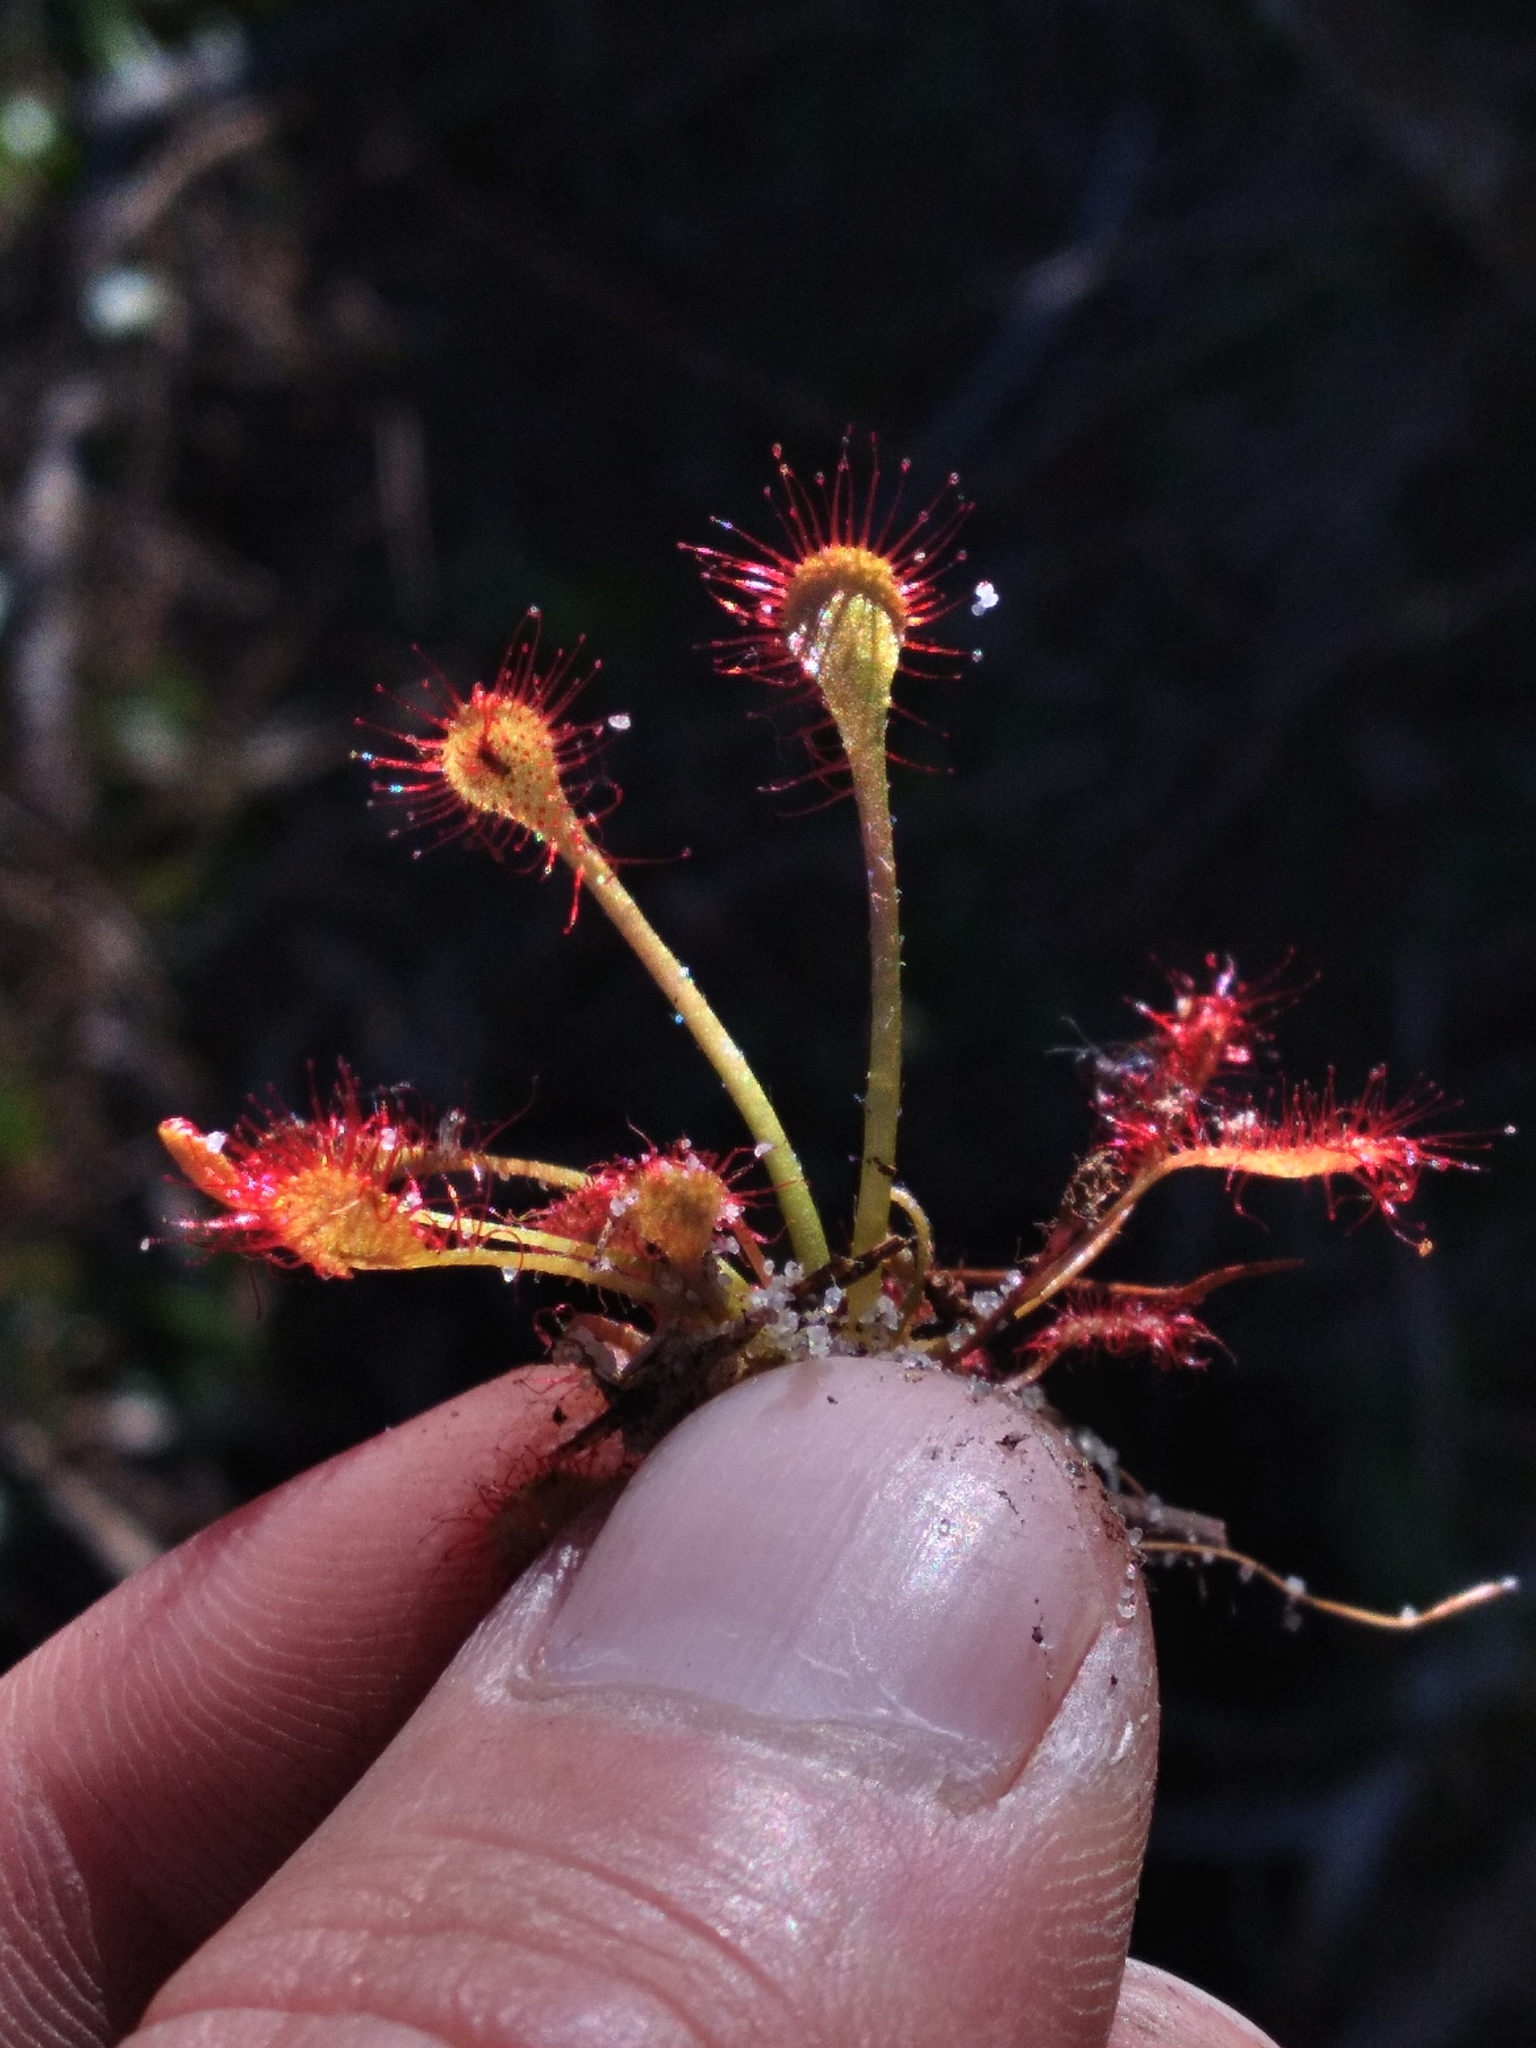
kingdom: Plantae
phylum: Tracheophyta
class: Magnoliopsida
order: Caryophyllales
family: Droseraceae
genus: Drosera
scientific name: Drosera capillaris
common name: Pink sundew
